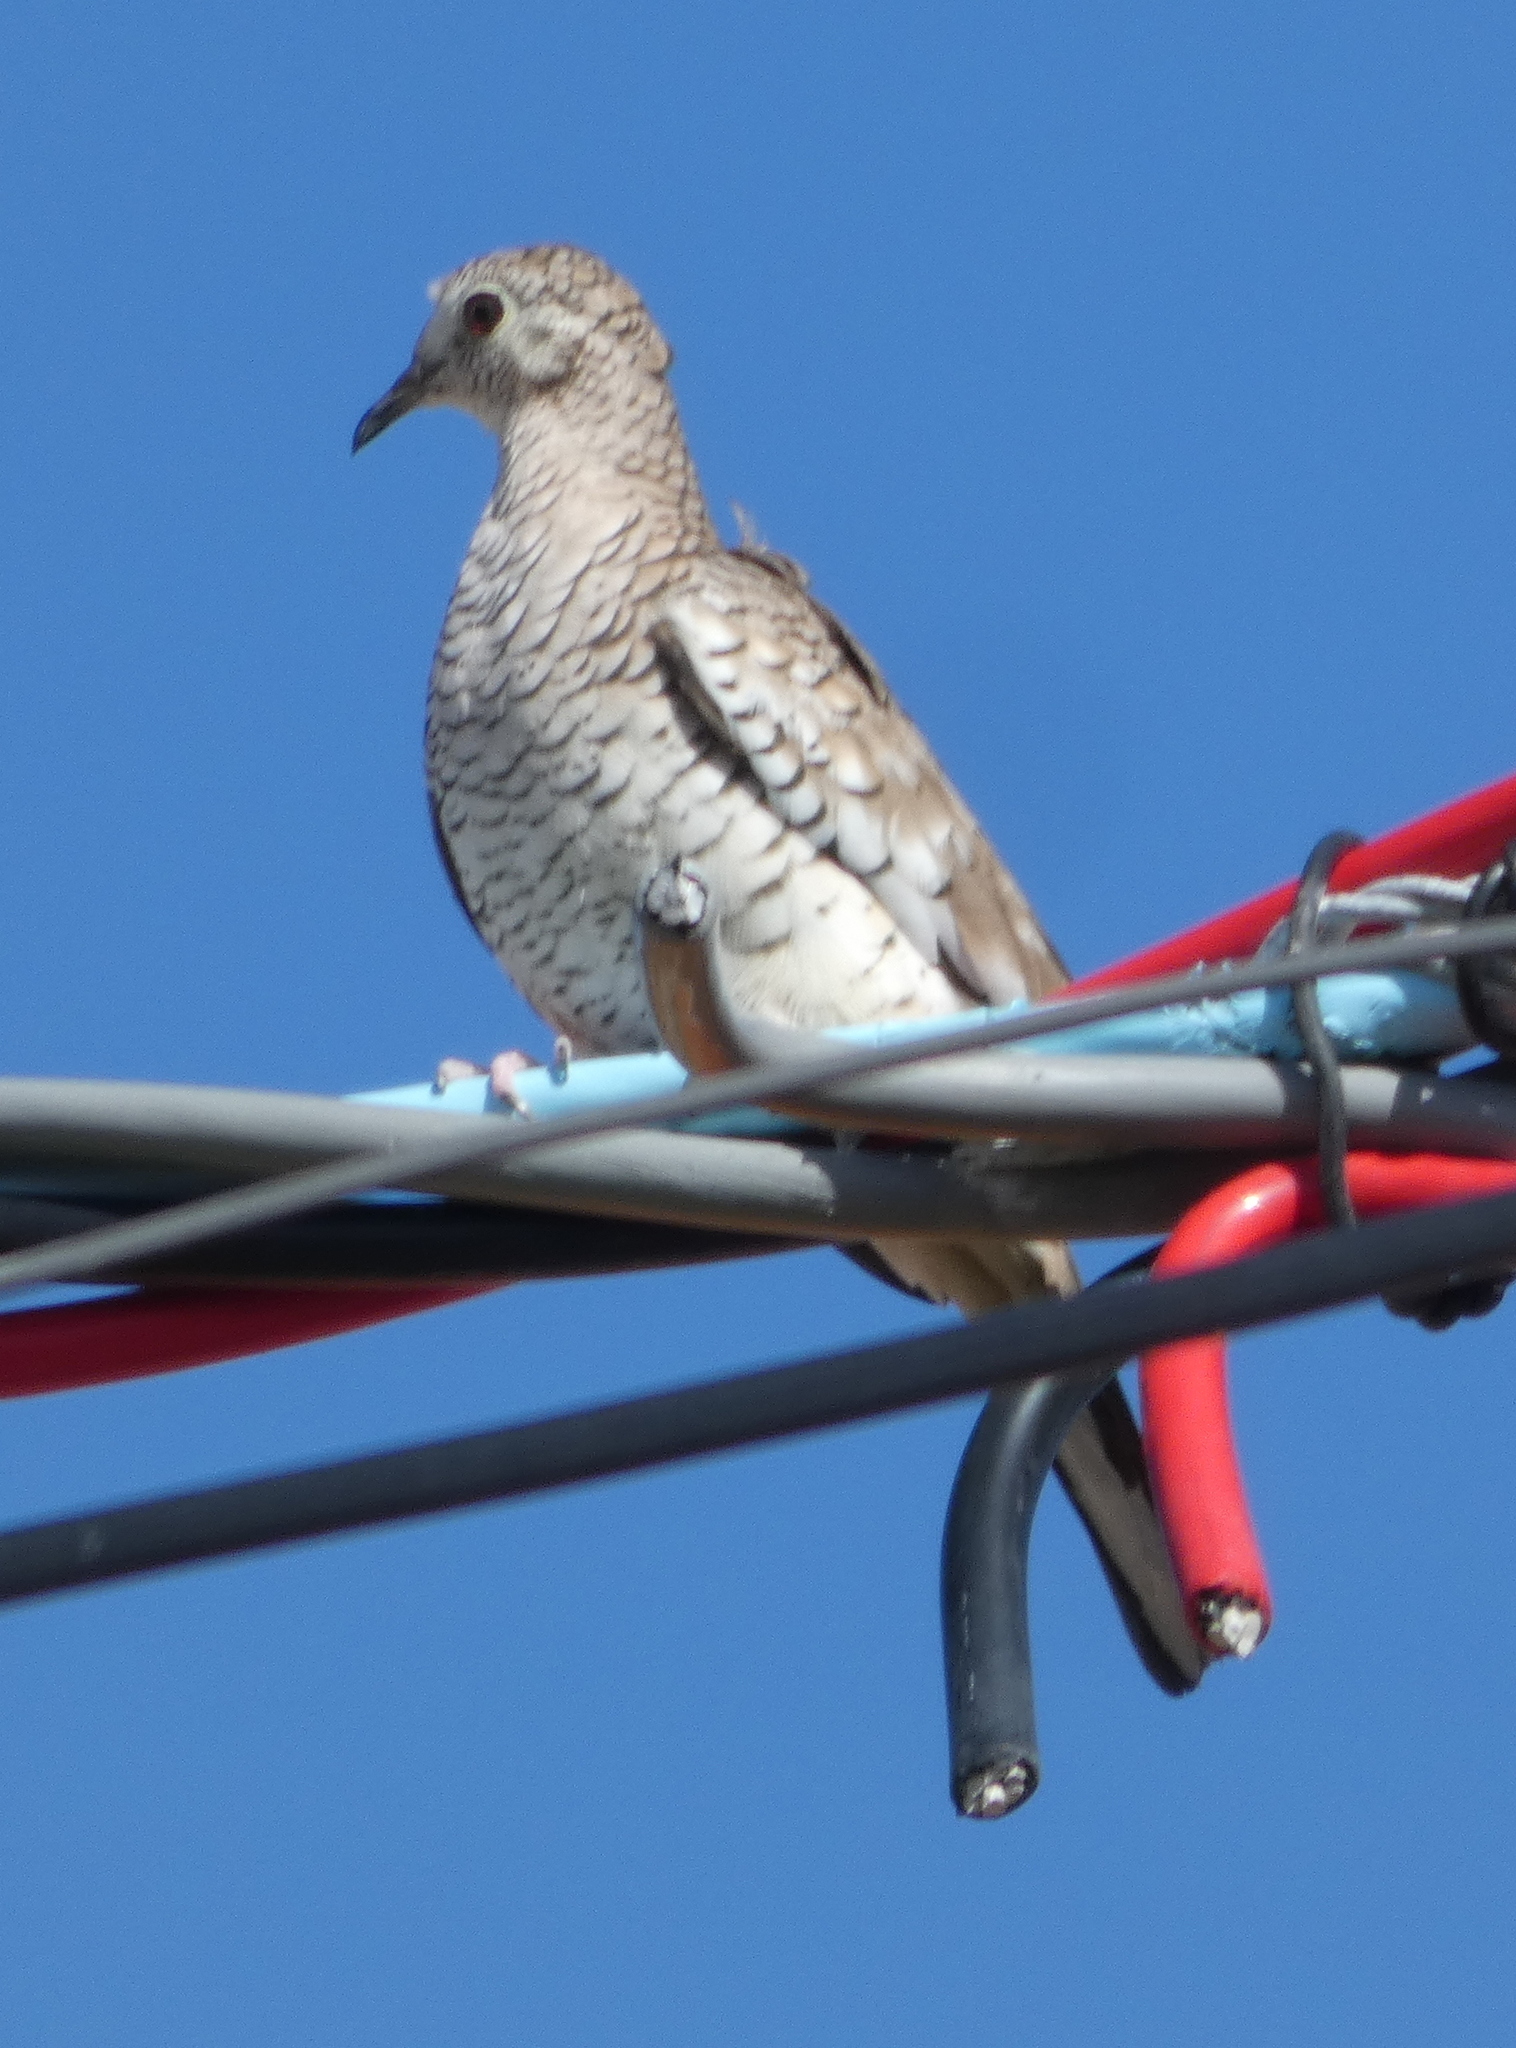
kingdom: Animalia
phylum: Chordata
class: Aves
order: Columbiformes
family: Columbidae
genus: Columbina
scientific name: Columbina squammata
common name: Scaled dove
